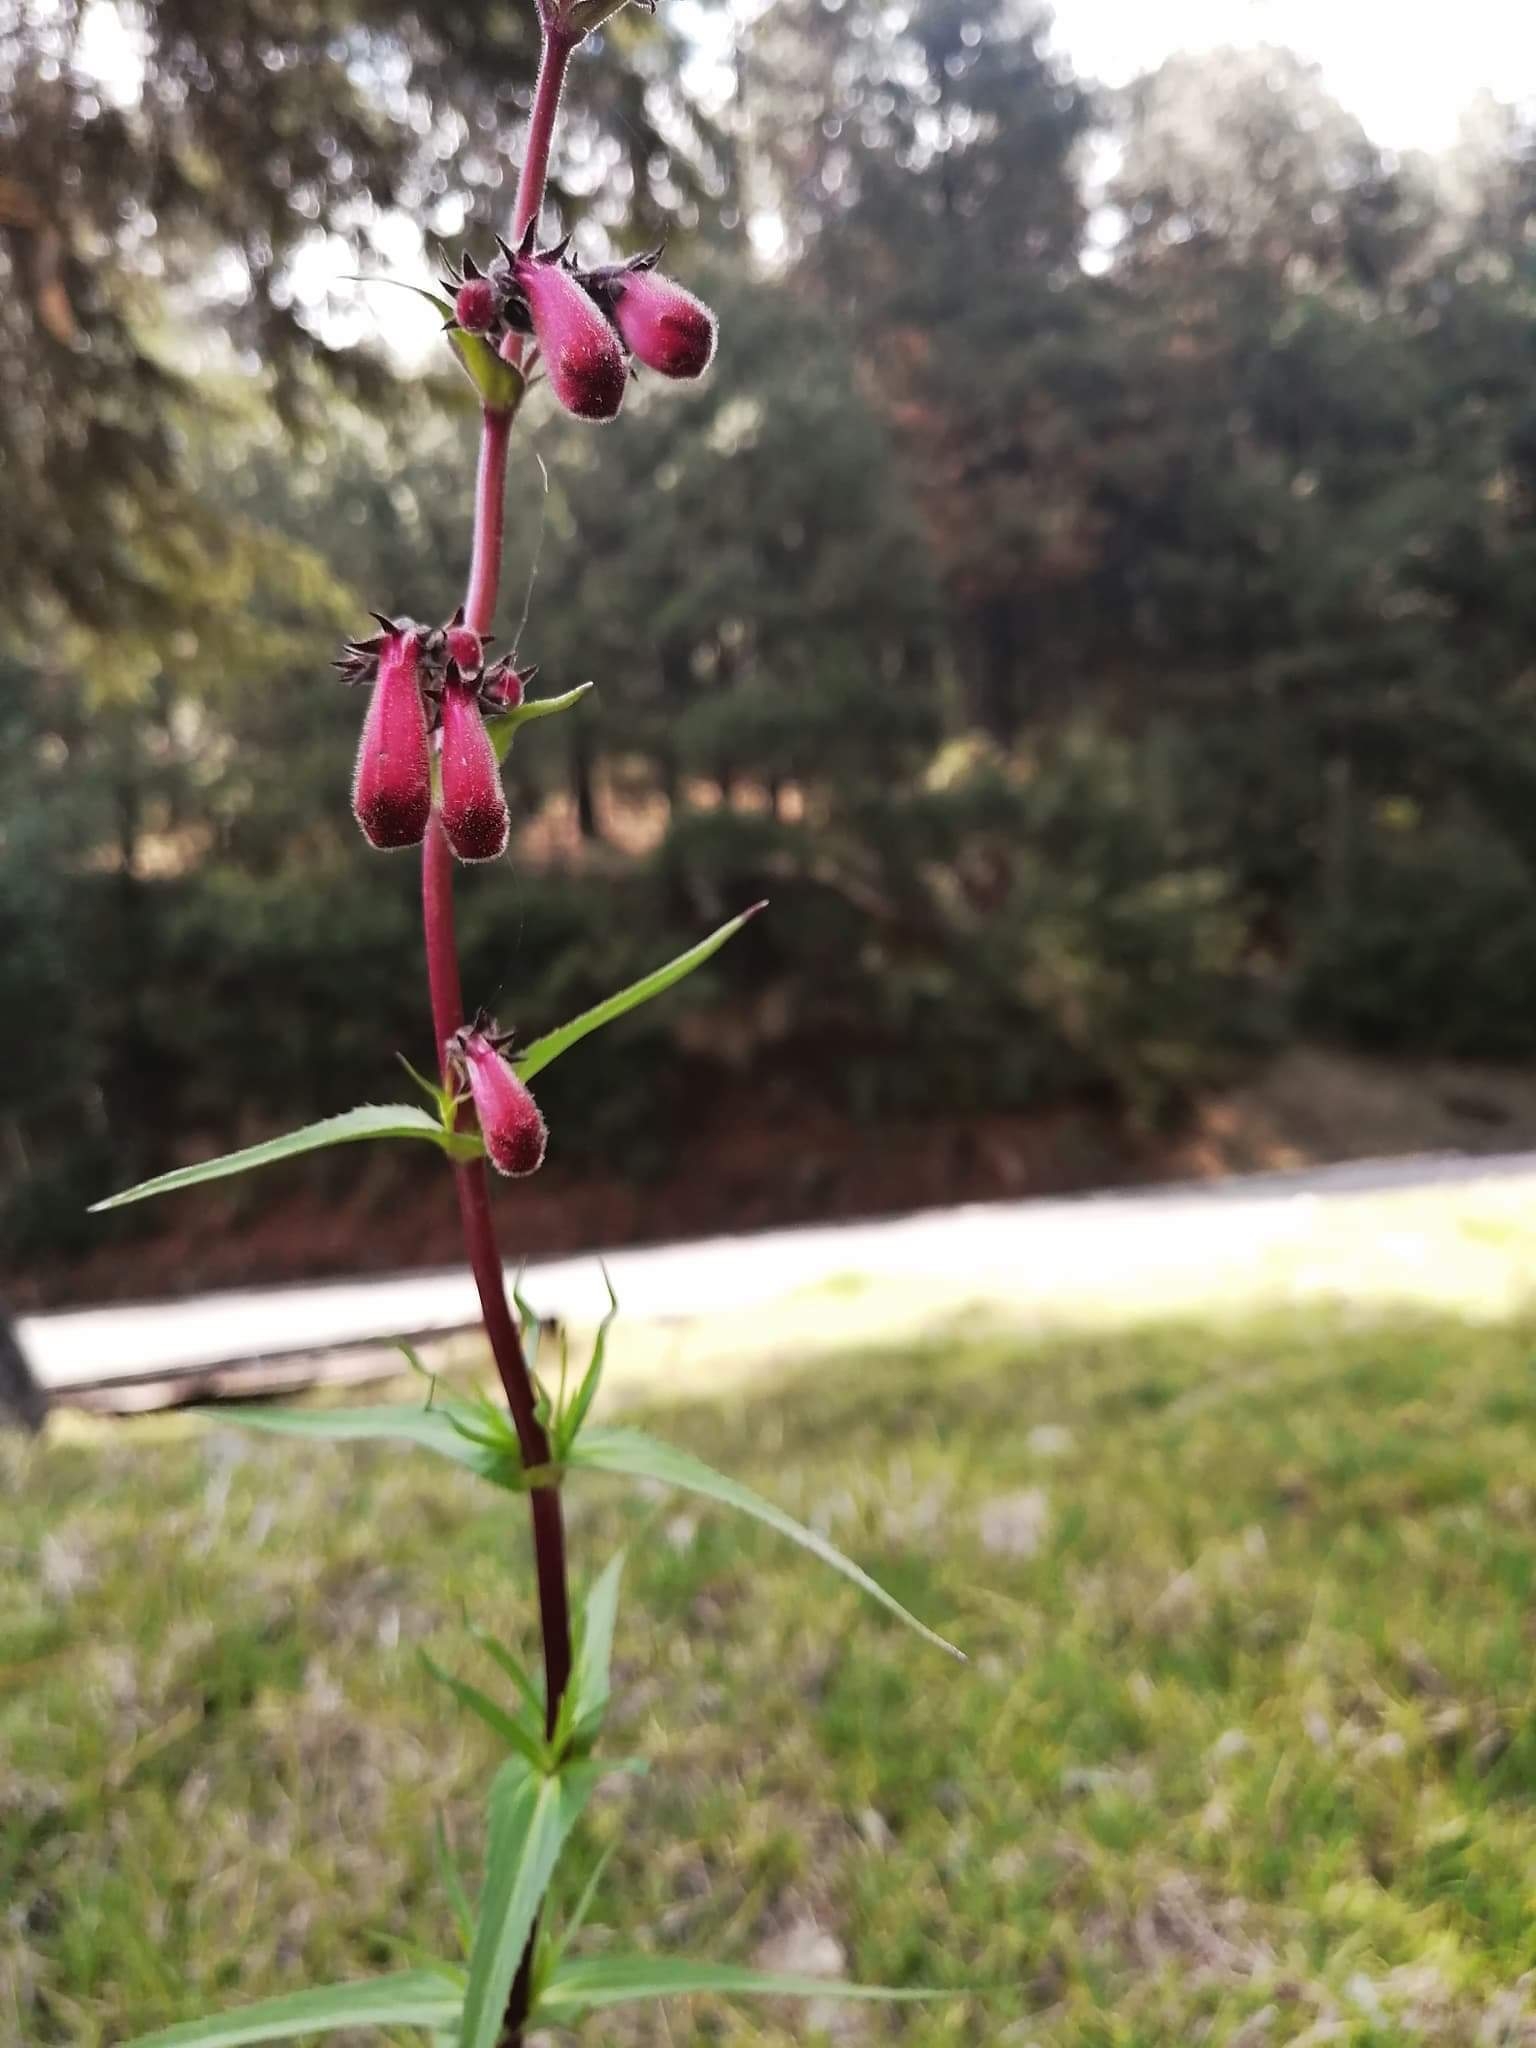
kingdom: Plantae
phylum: Tracheophyta
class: Magnoliopsida
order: Lamiales
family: Plantaginaceae
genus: Penstemon
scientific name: Penstemon roseus
